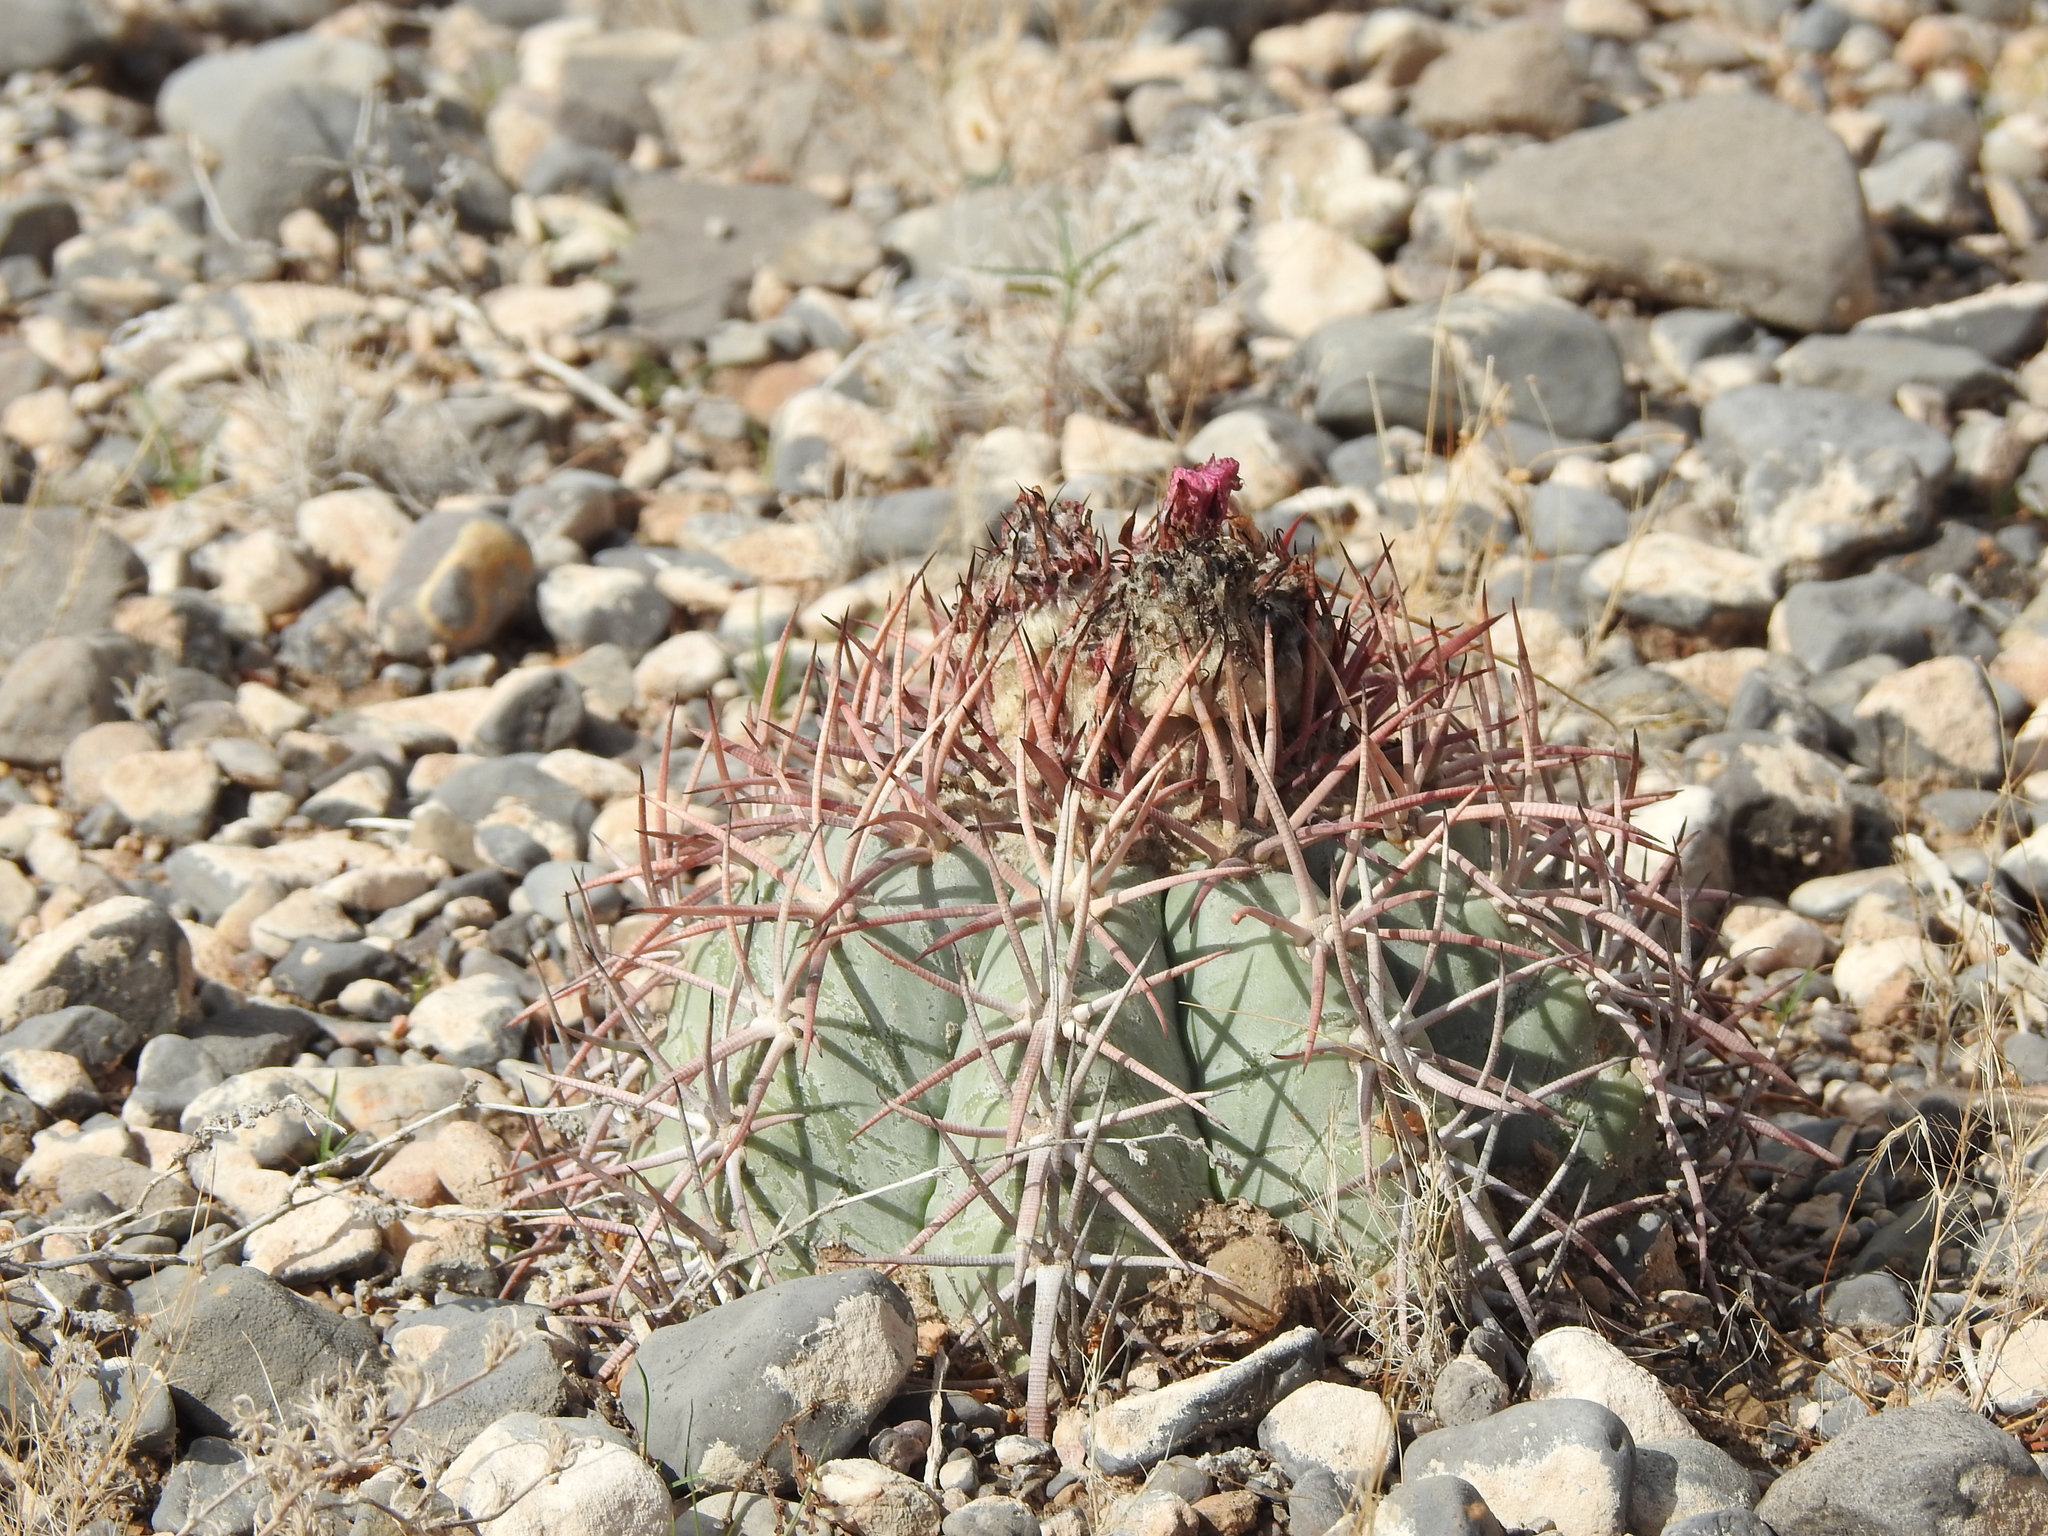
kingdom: Plantae
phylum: Tracheophyta
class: Magnoliopsida
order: Caryophyllales
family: Cactaceae
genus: Echinocactus
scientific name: Echinocactus horizonthalonius
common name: Devilshead
